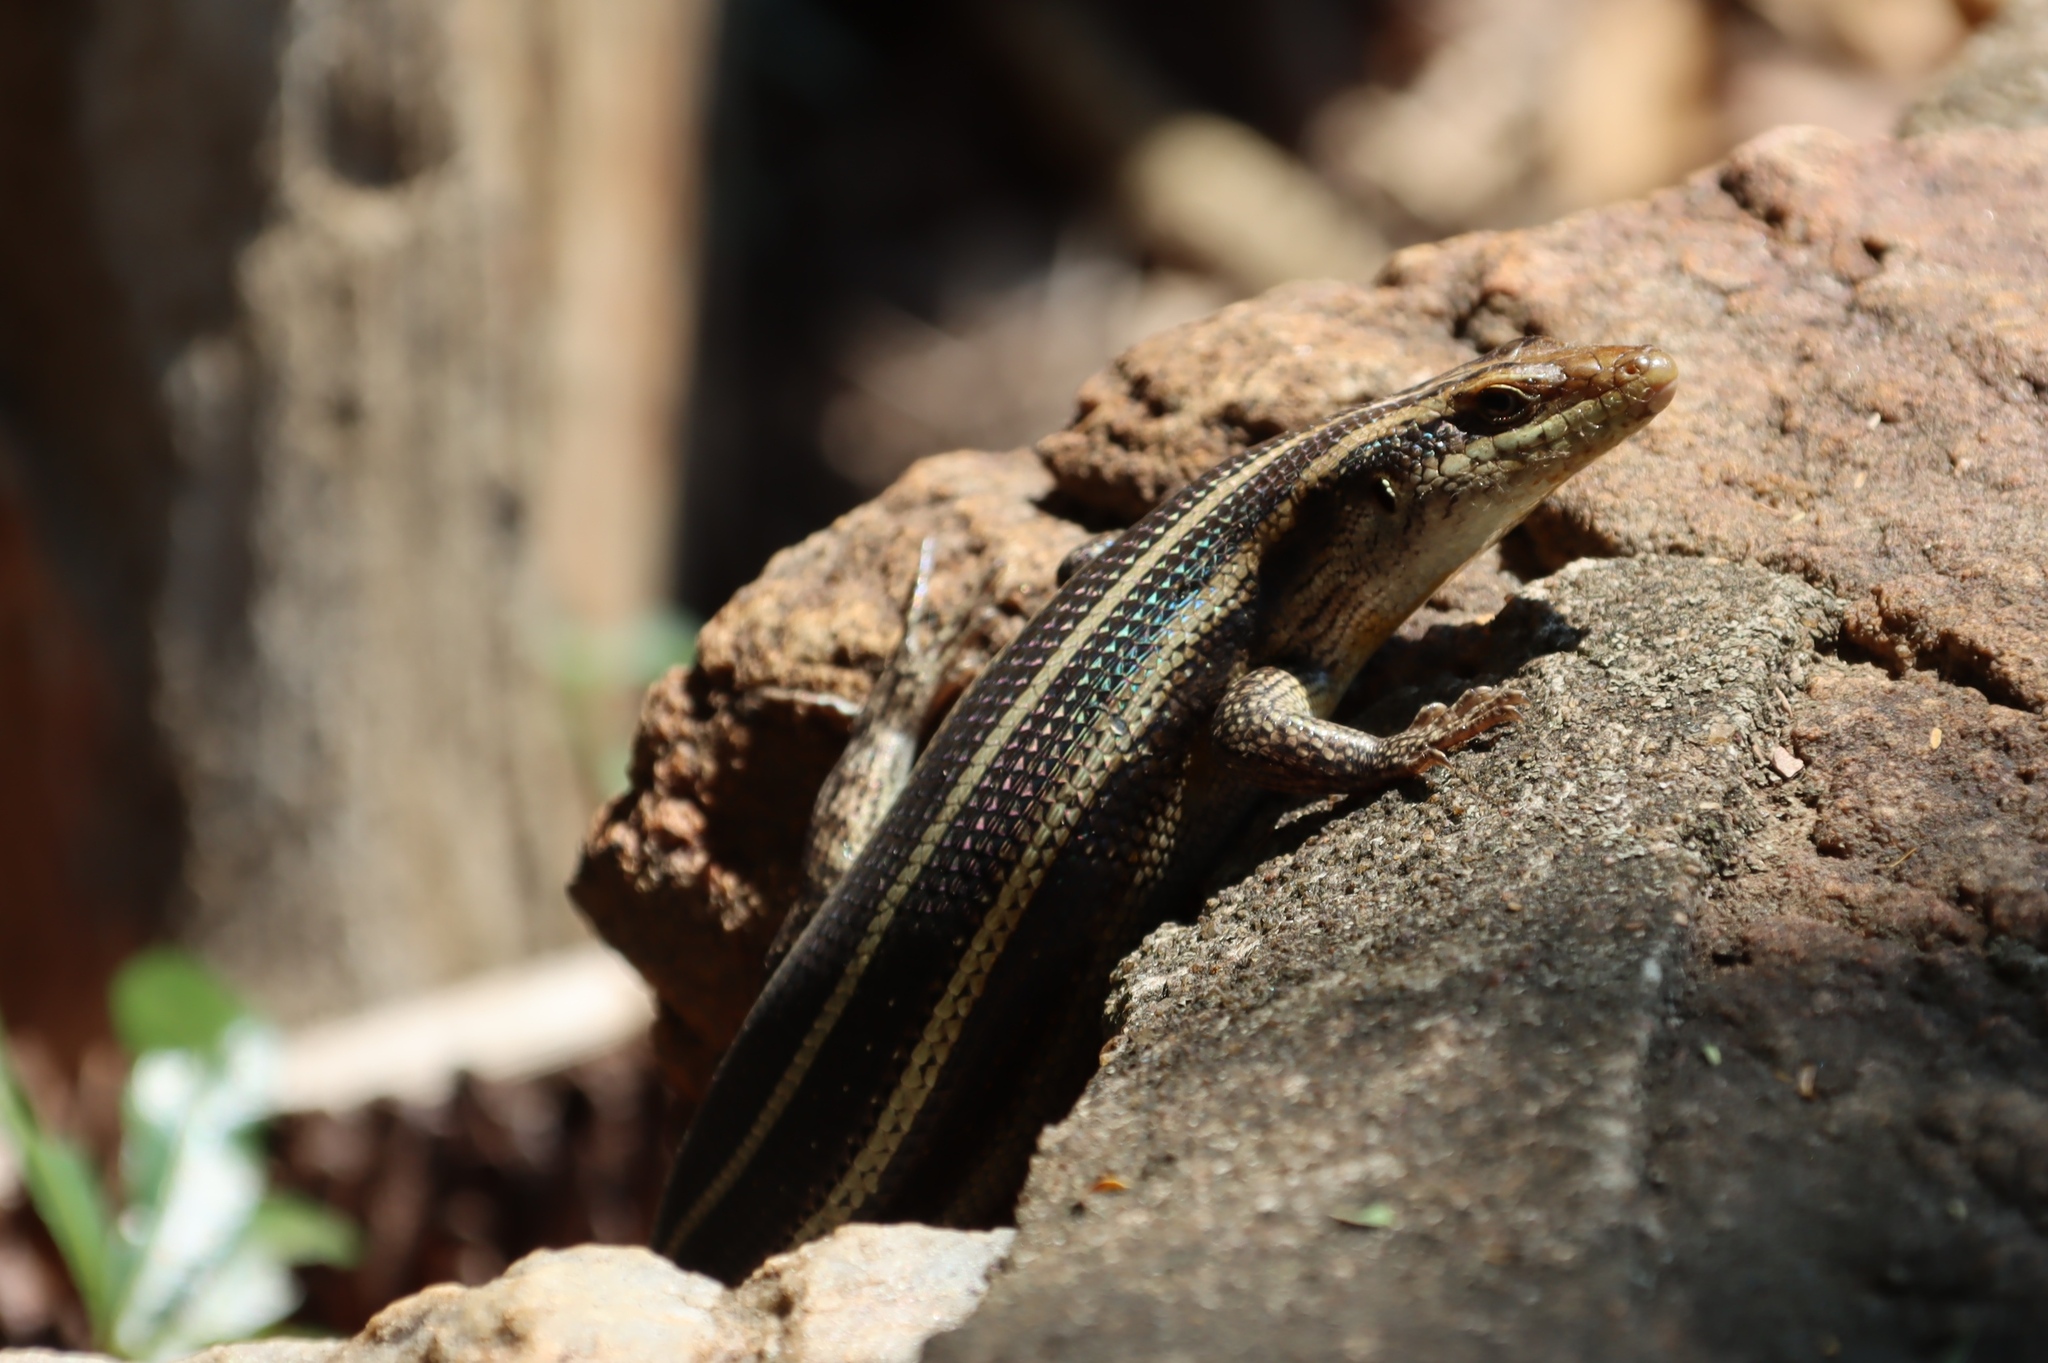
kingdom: Animalia
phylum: Chordata
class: Squamata
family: Scincidae
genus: Trachylepis
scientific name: Trachylepis margaritifera
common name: Rainbow skink
